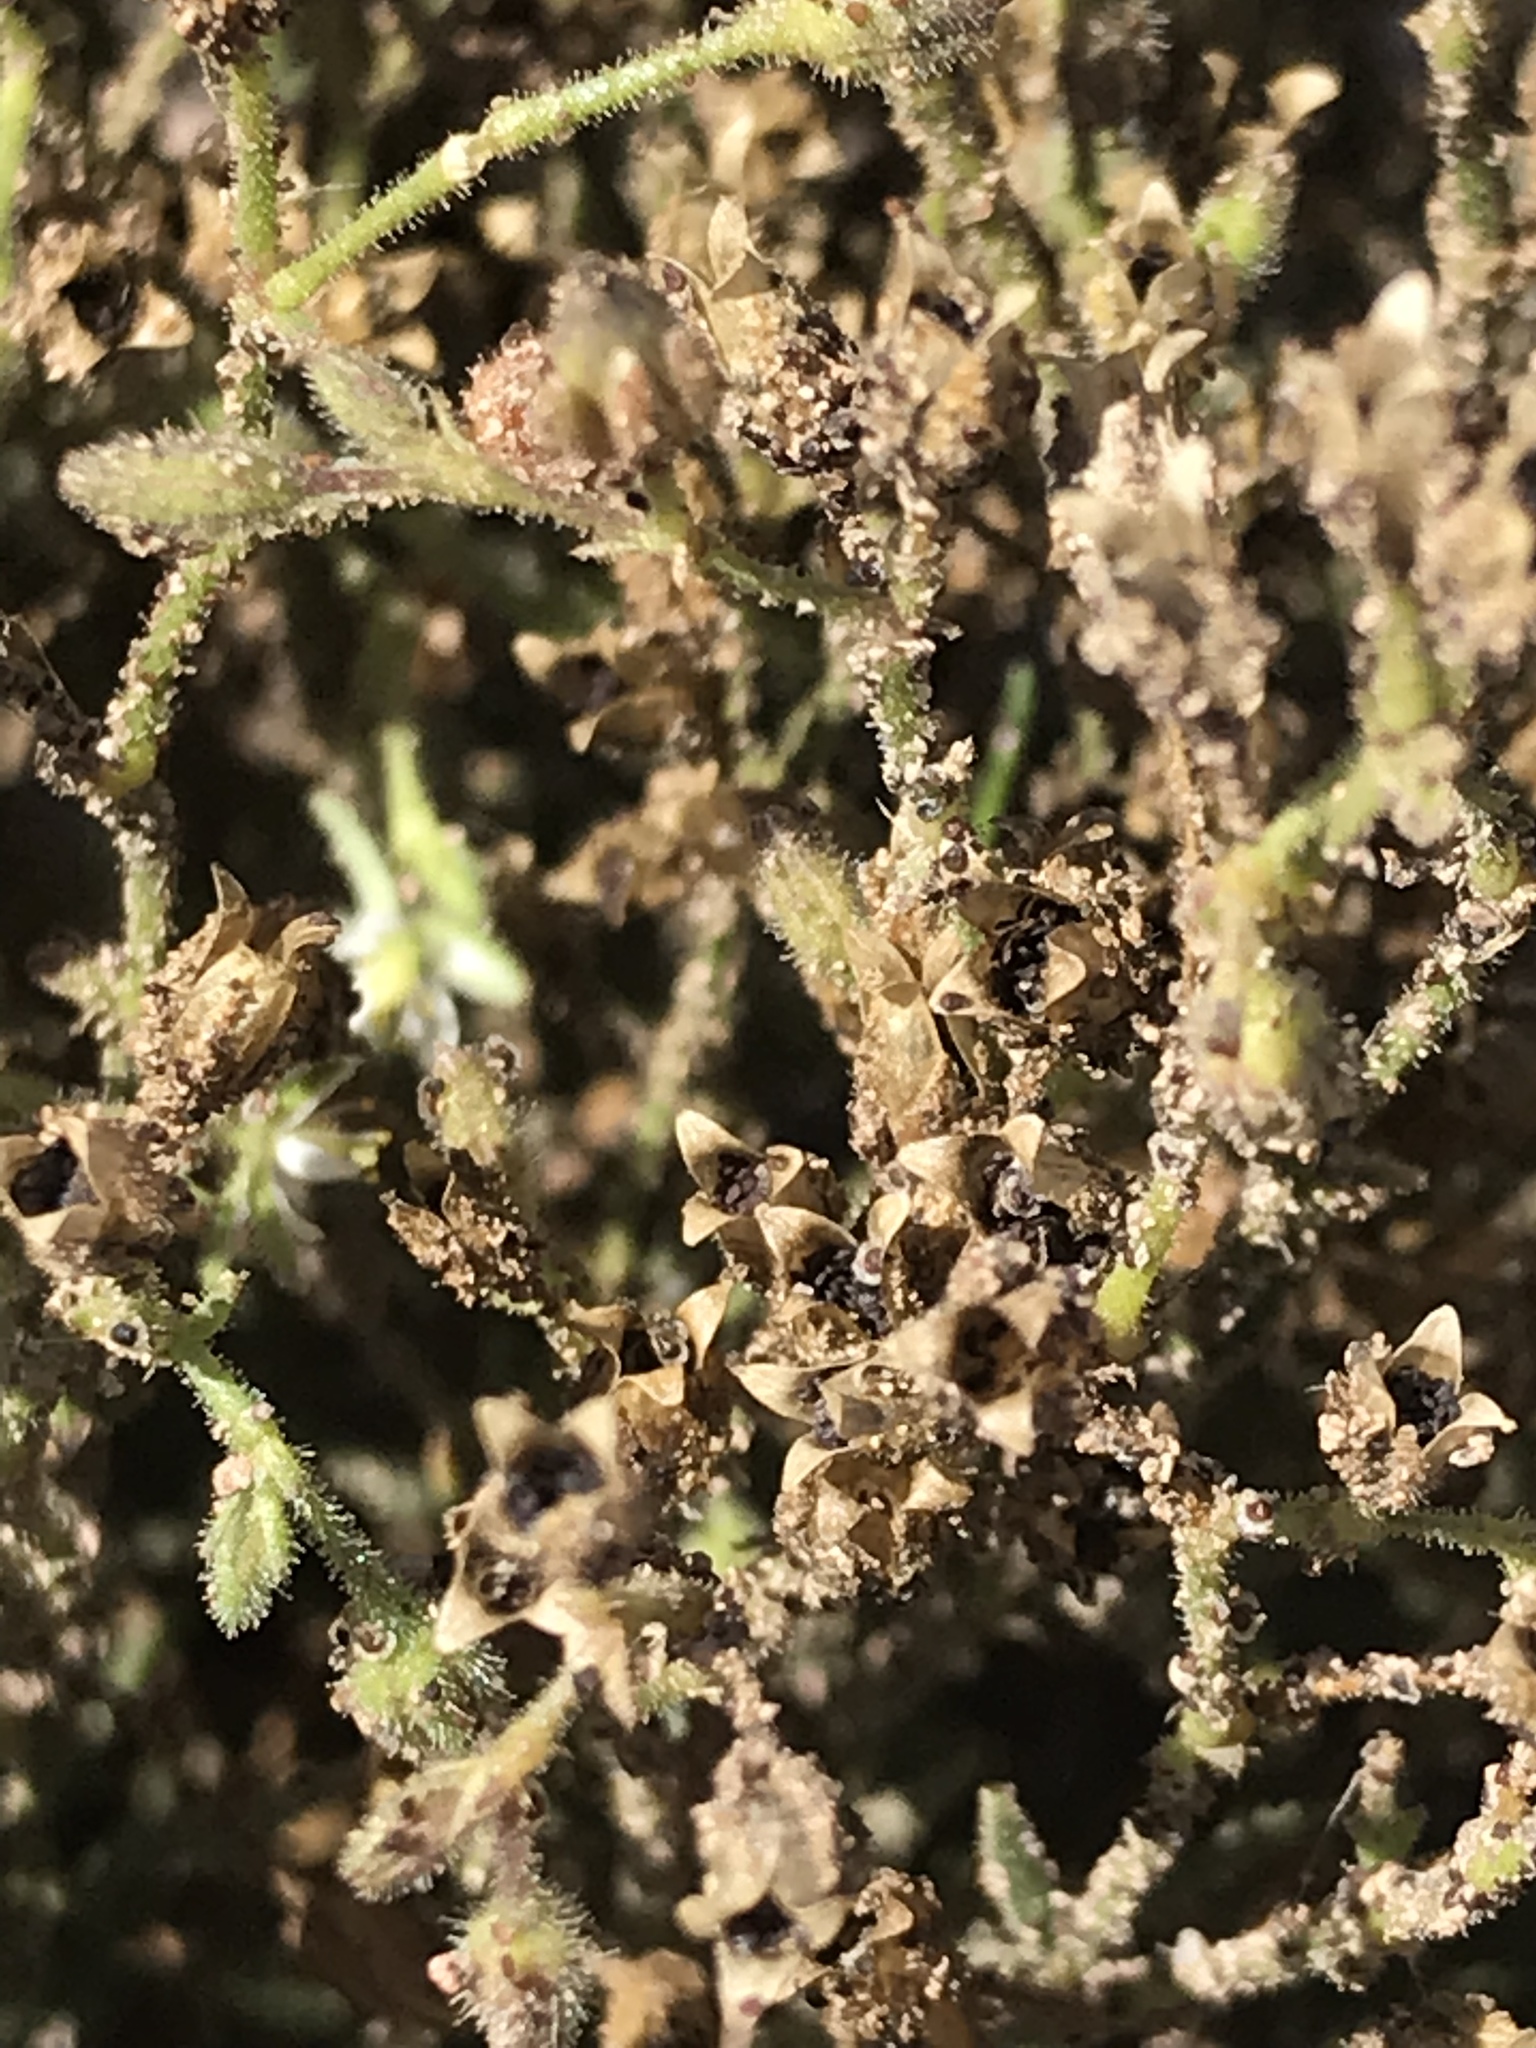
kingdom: Plantae
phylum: Tracheophyta
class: Magnoliopsida
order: Caryophyllales
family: Caryophyllaceae
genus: Spergularia
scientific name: Spergularia villosa
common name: Hairy sandspurry
